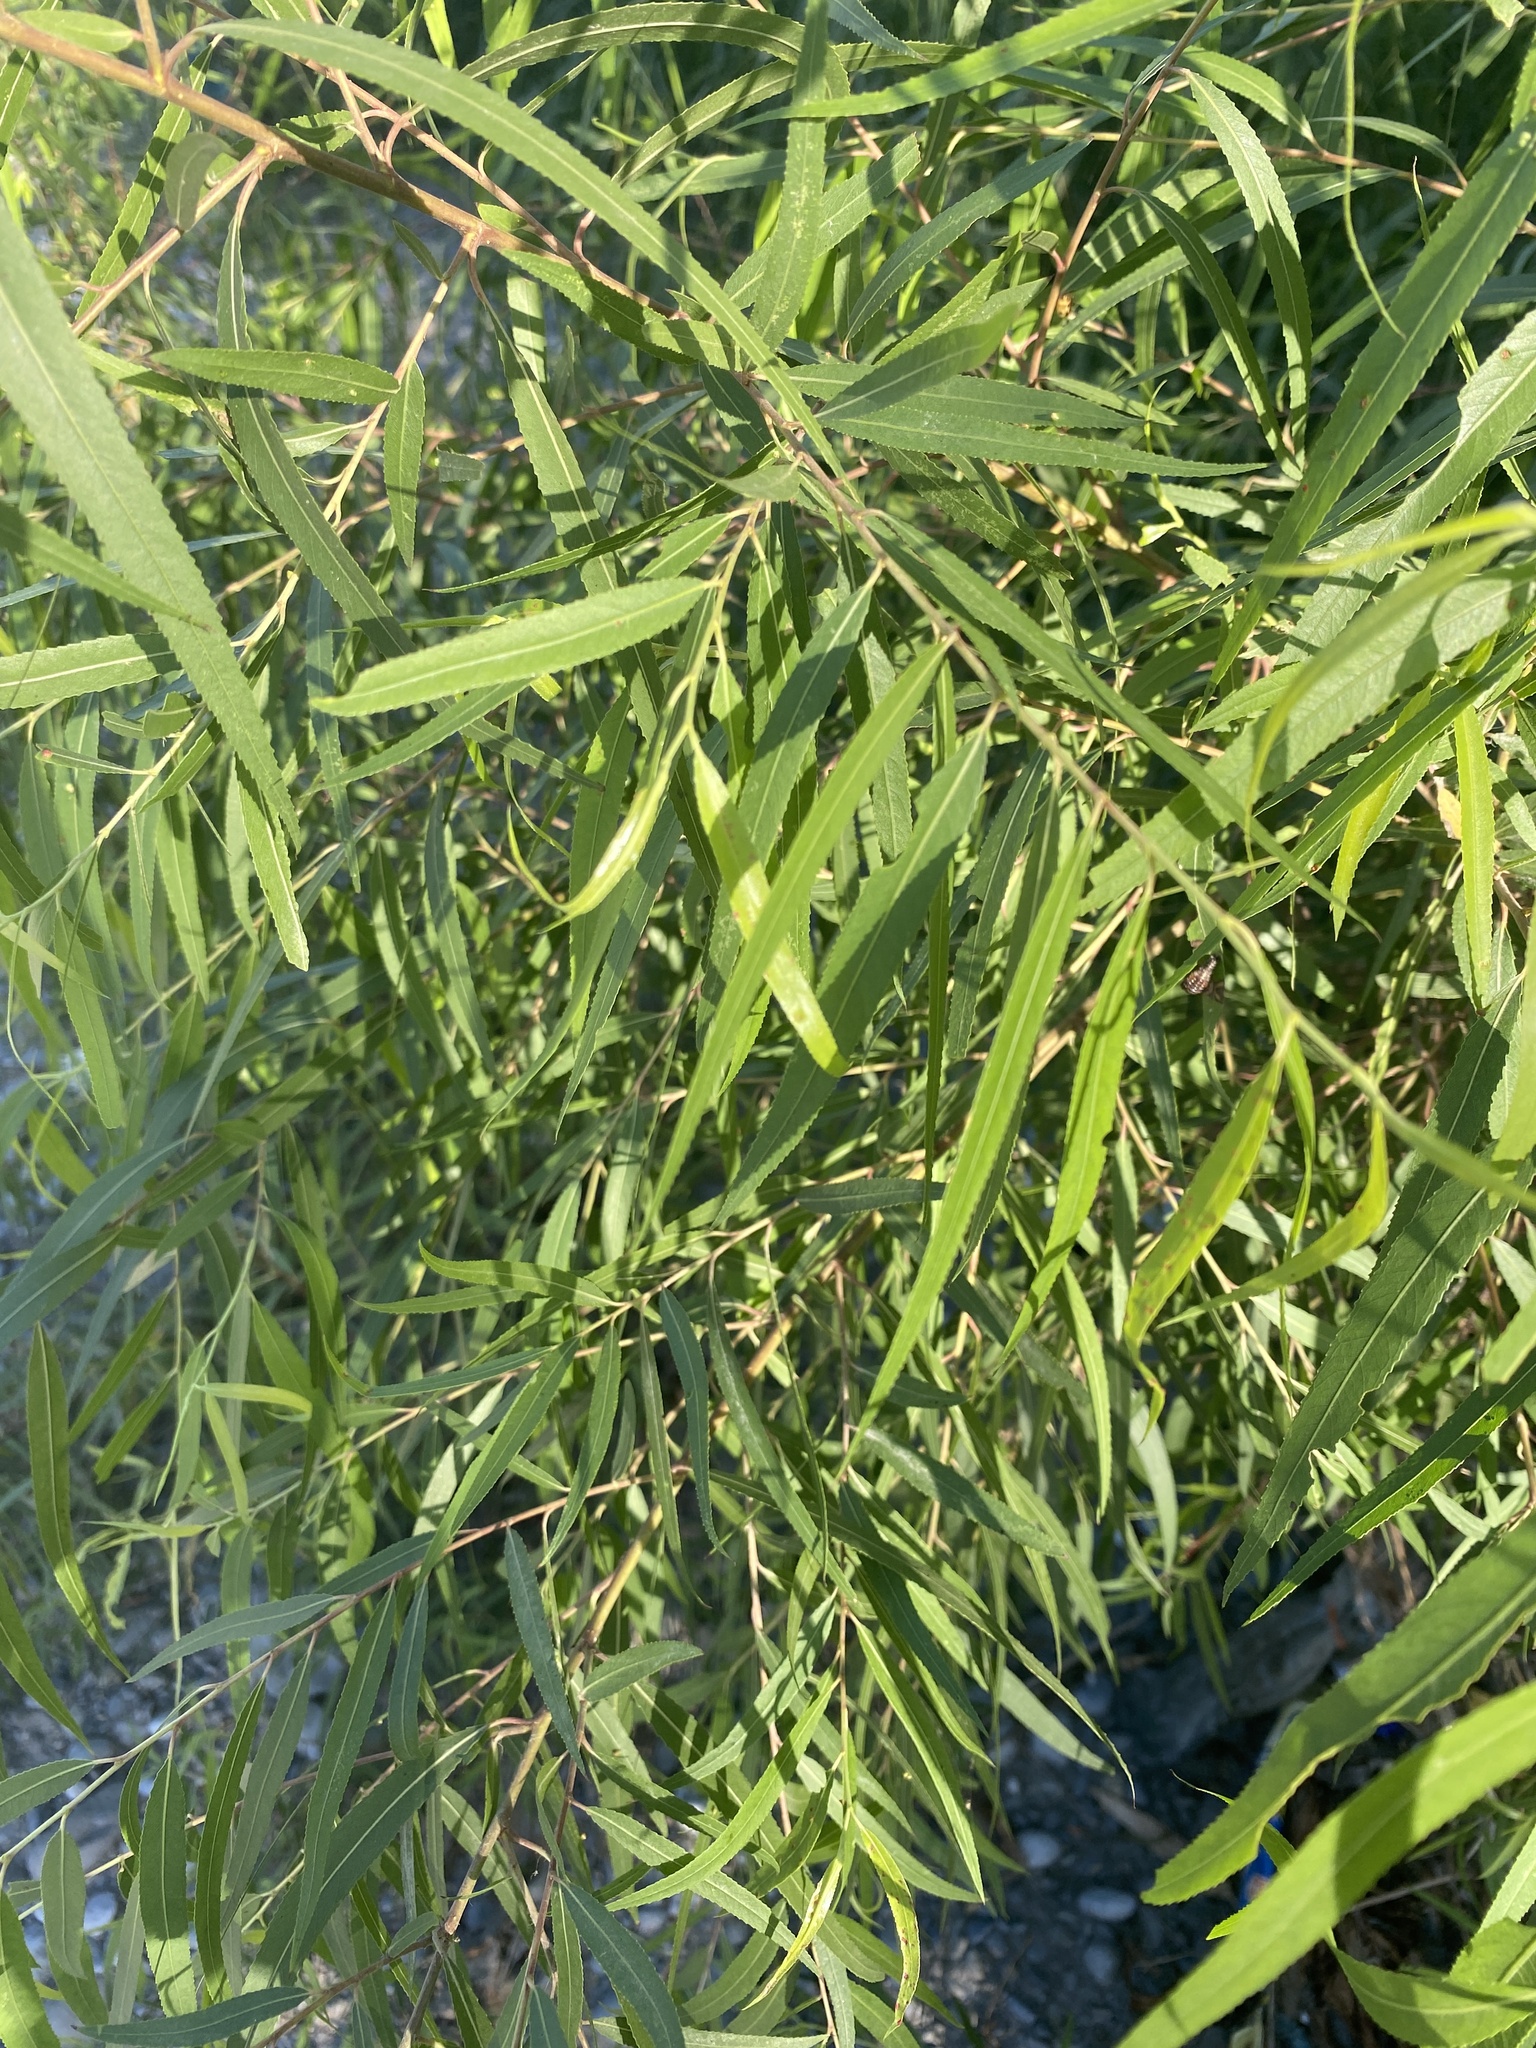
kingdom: Plantae
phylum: Tracheophyta
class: Magnoliopsida
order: Malpighiales
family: Salicaceae
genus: Salix
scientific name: Salix nigra
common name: Black willow
